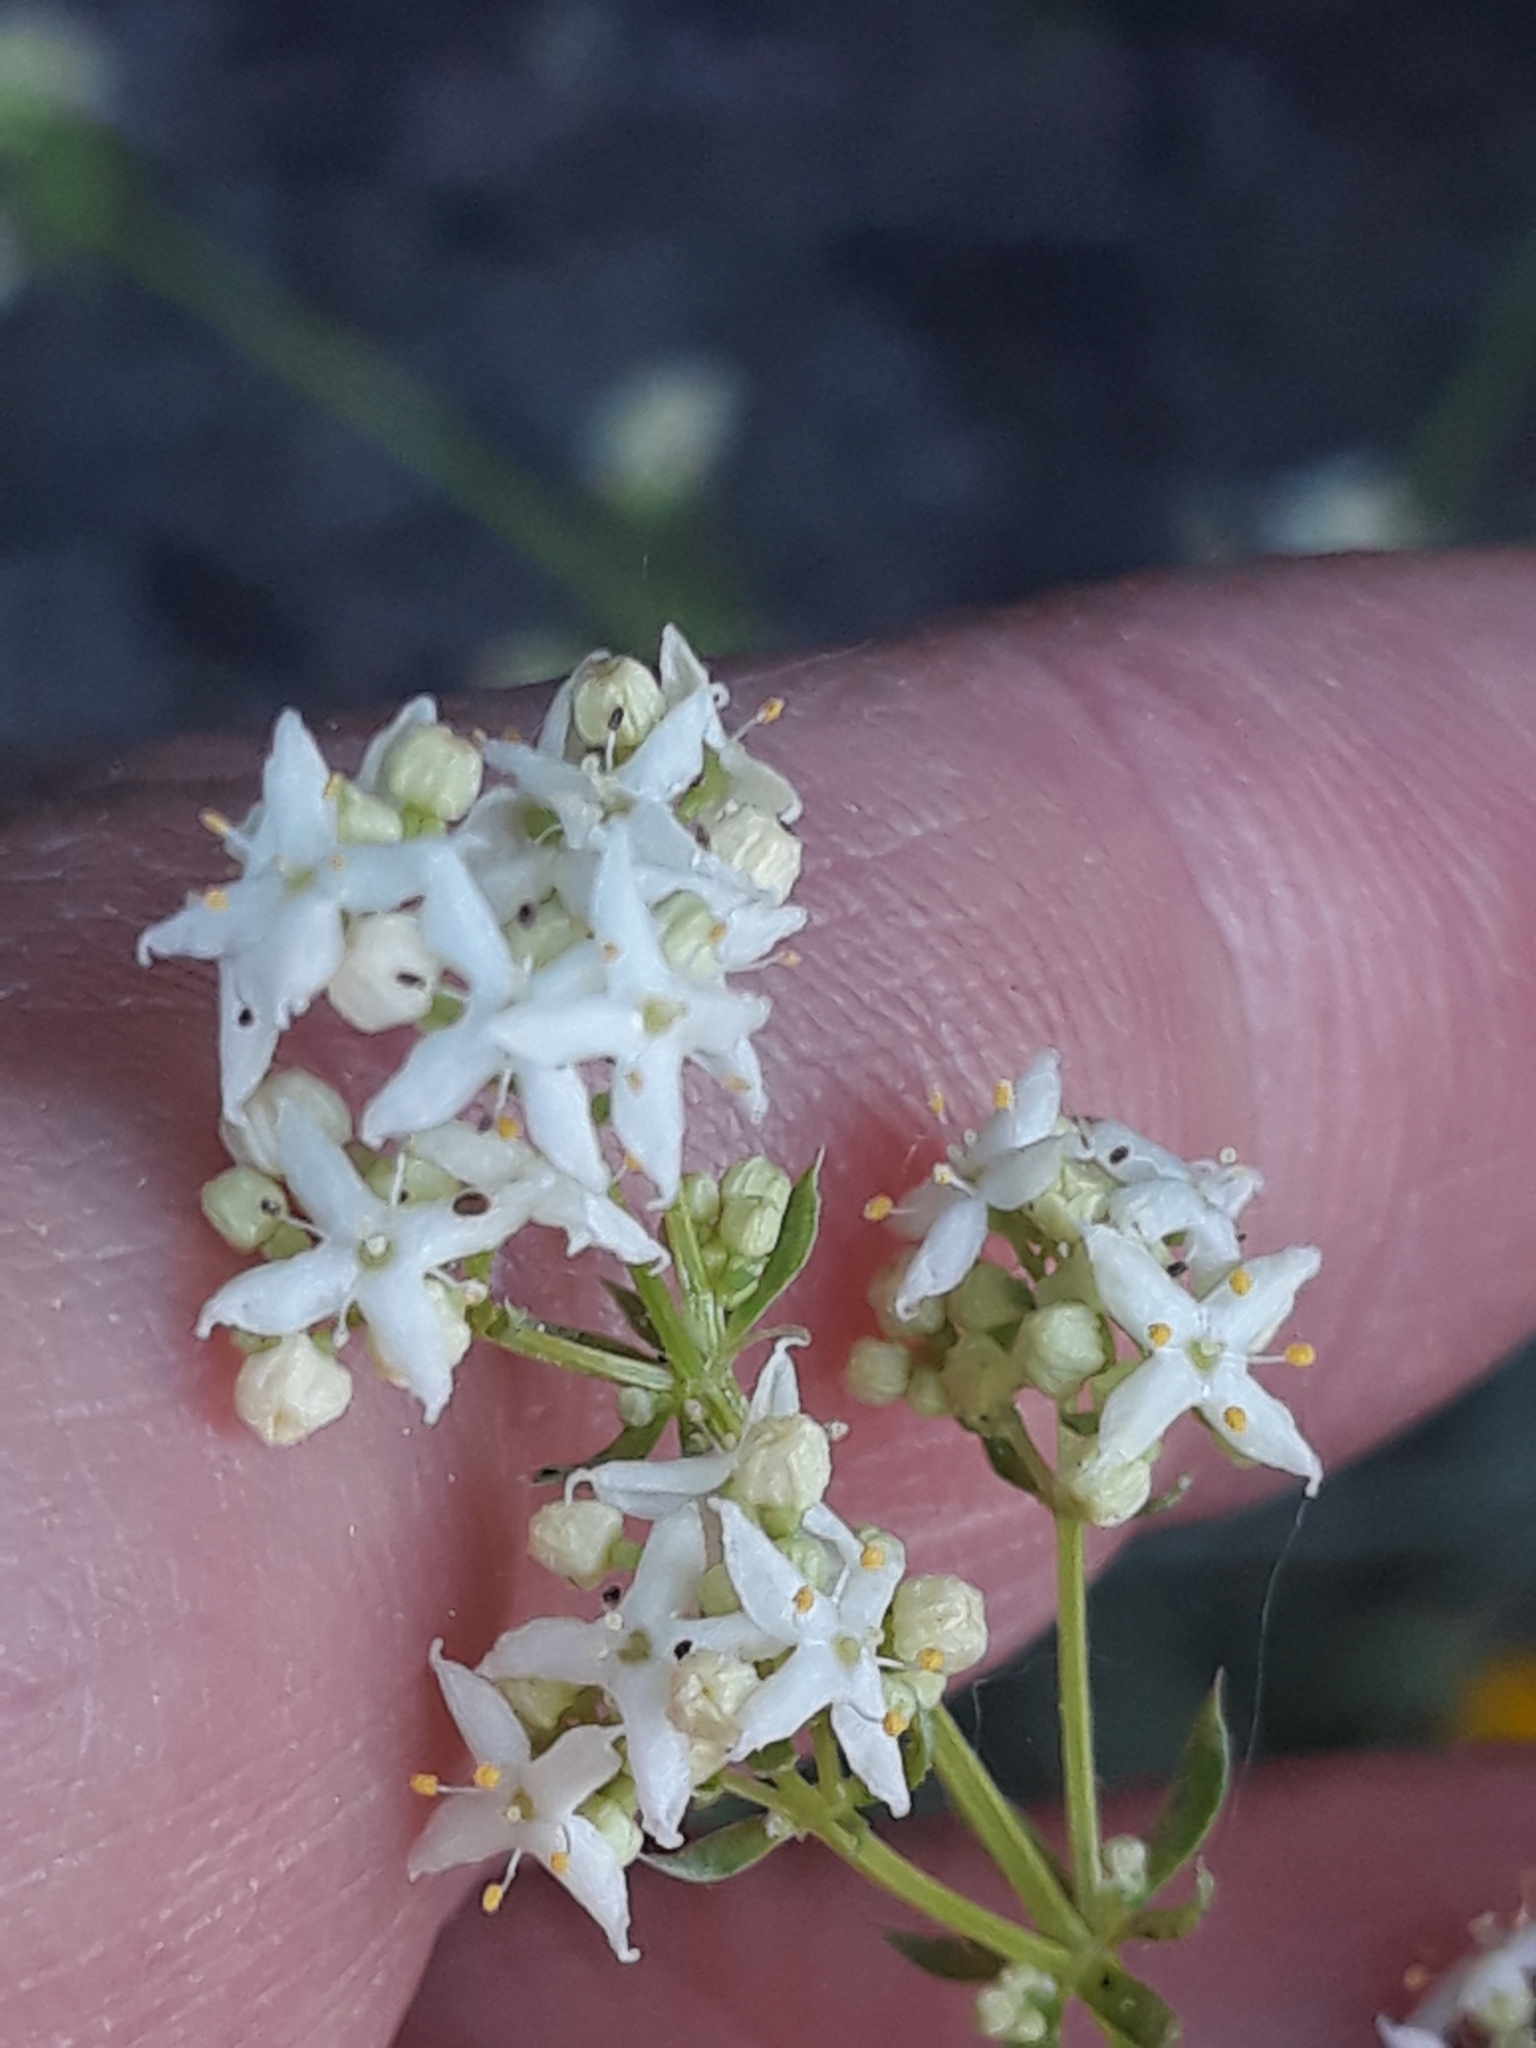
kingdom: Plantae
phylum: Tracheophyta
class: Magnoliopsida
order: Gentianales
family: Rubiaceae
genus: Galium
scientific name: Galium album
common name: White bedstraw
